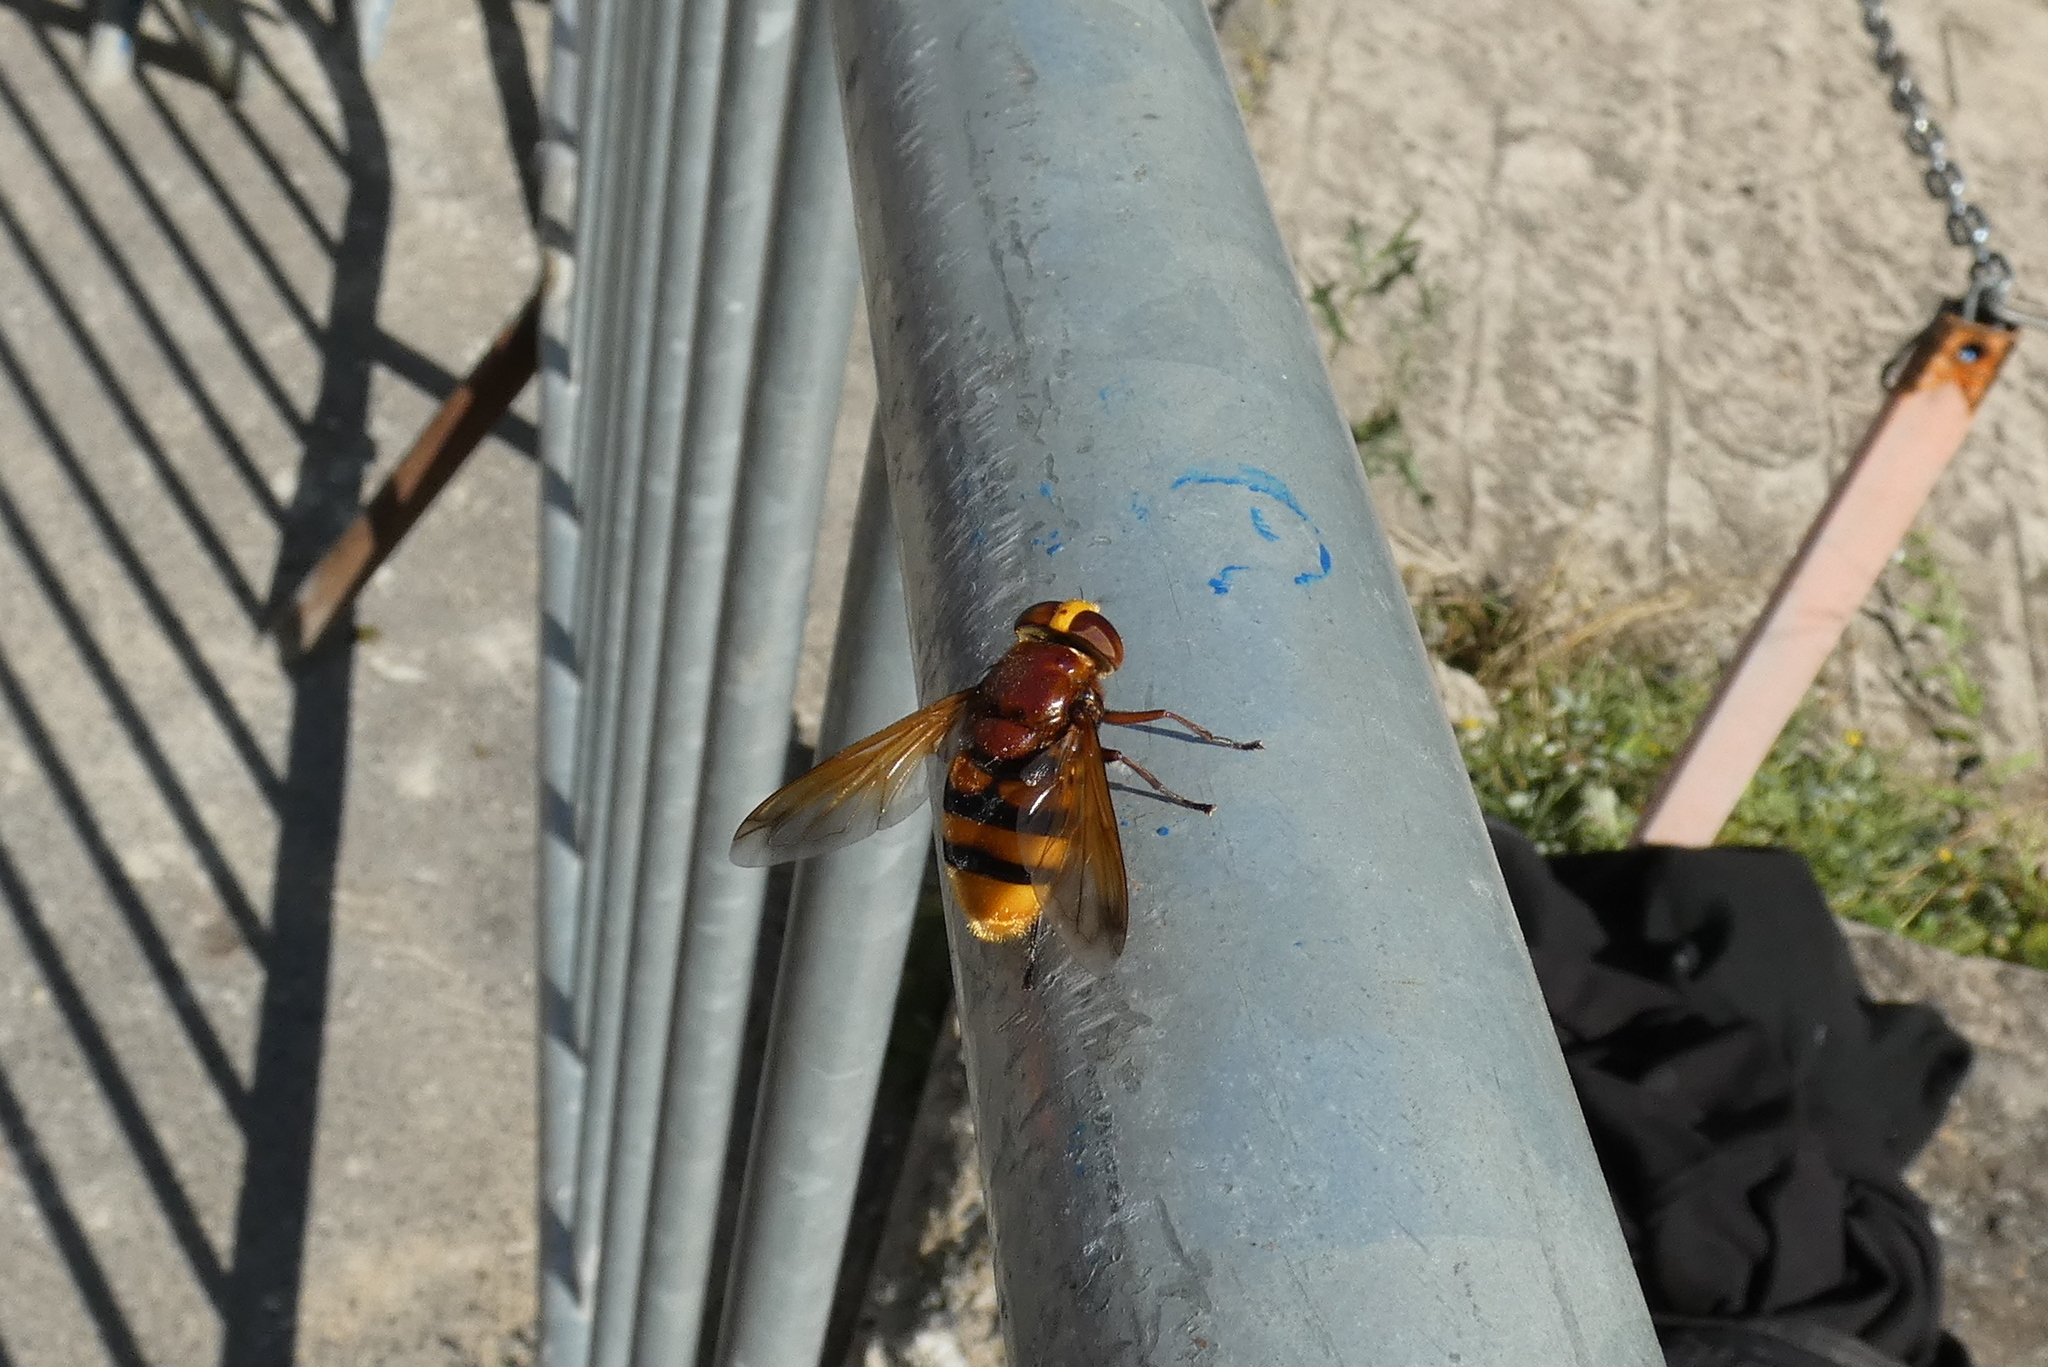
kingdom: Animalia
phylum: Arthropoda
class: Insecta
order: Diptera
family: Syrphidae
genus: Volucella
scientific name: Volucella zonaria
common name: Hornet hoverfly
